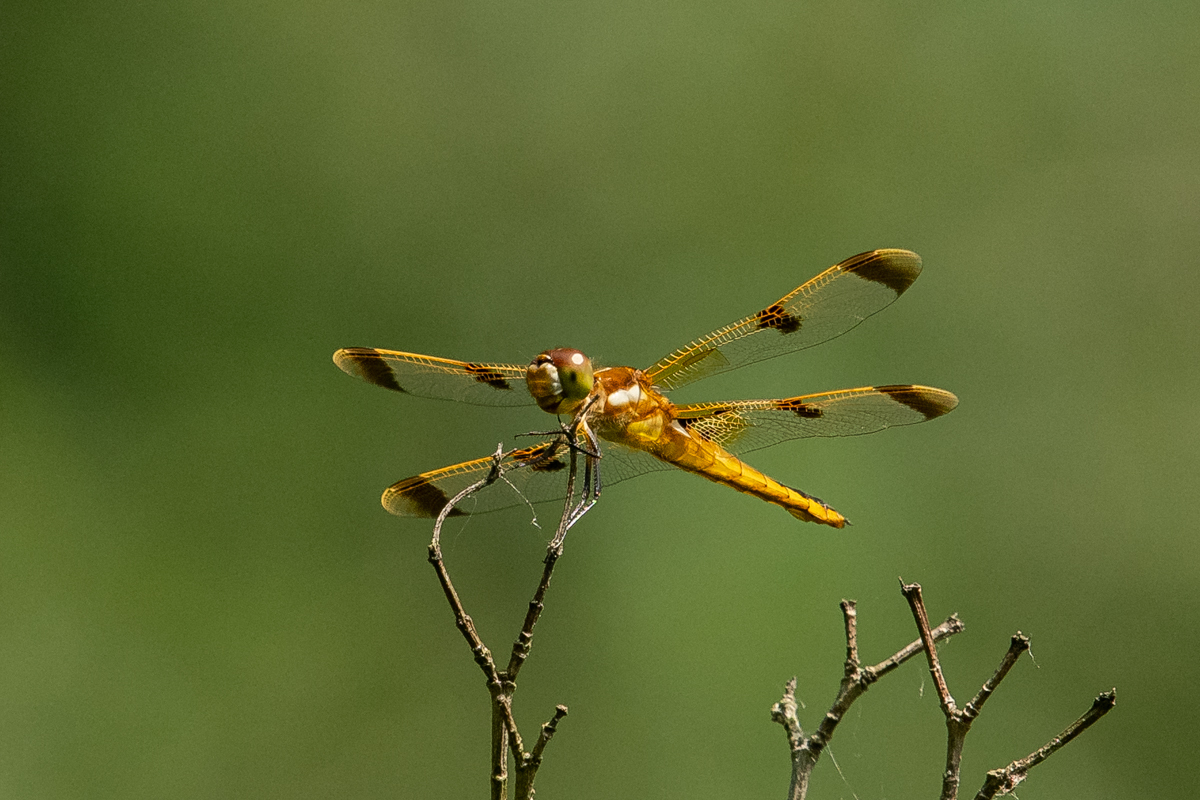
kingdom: Animalia
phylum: Arthropoda
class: Insecta
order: Odonata
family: Libellulidae
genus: Libellula
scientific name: Libellula semifasciata
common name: Painted skimmer
